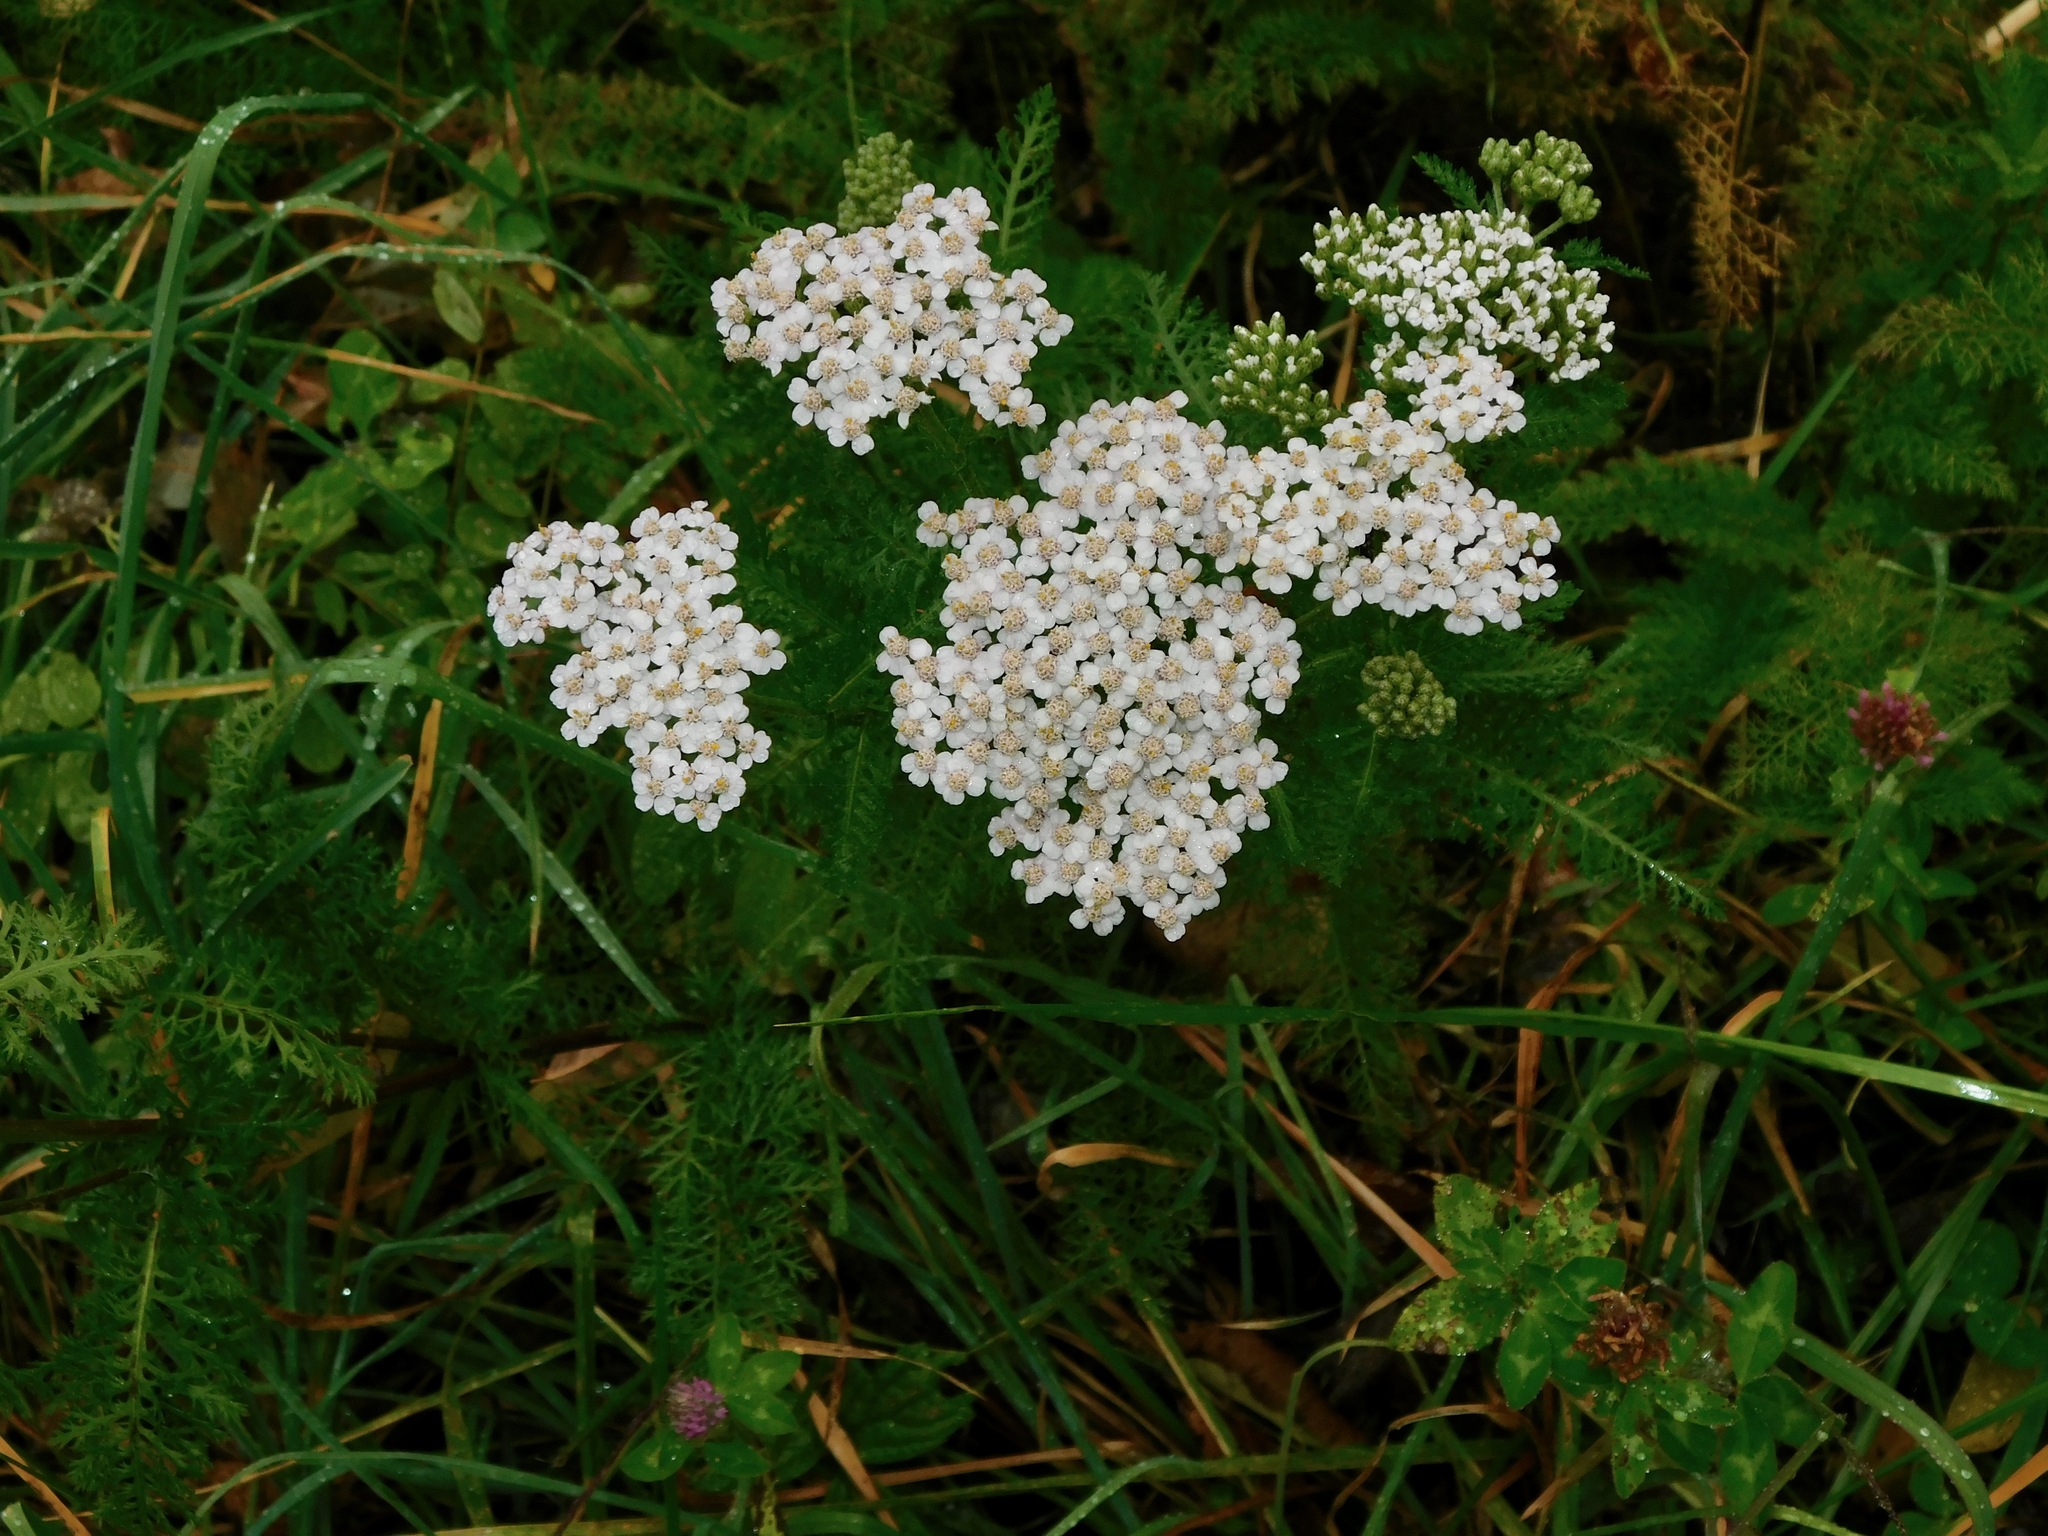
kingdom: Plantae
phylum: Tracheophyta
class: Magnoliopsida
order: Asterales
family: Asteraceae
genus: Achillea
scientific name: Achillea millefolium
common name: Yarrow
